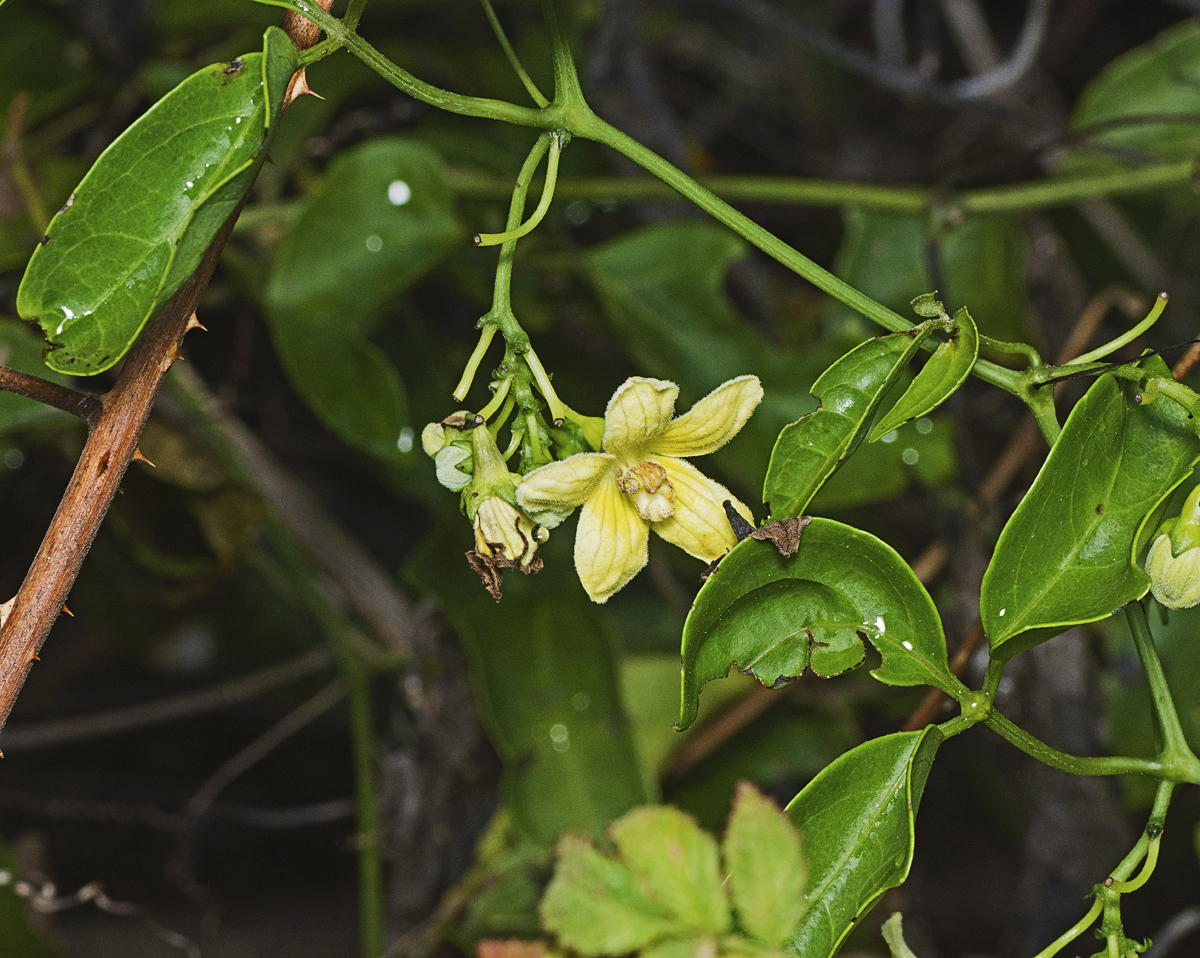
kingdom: Plantae
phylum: Tracheophyta
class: Magnoliopsida
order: Cucurbitales
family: Cucurbitaceae
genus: Nothoalsomitra
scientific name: Nothoalsomitra suberosa
